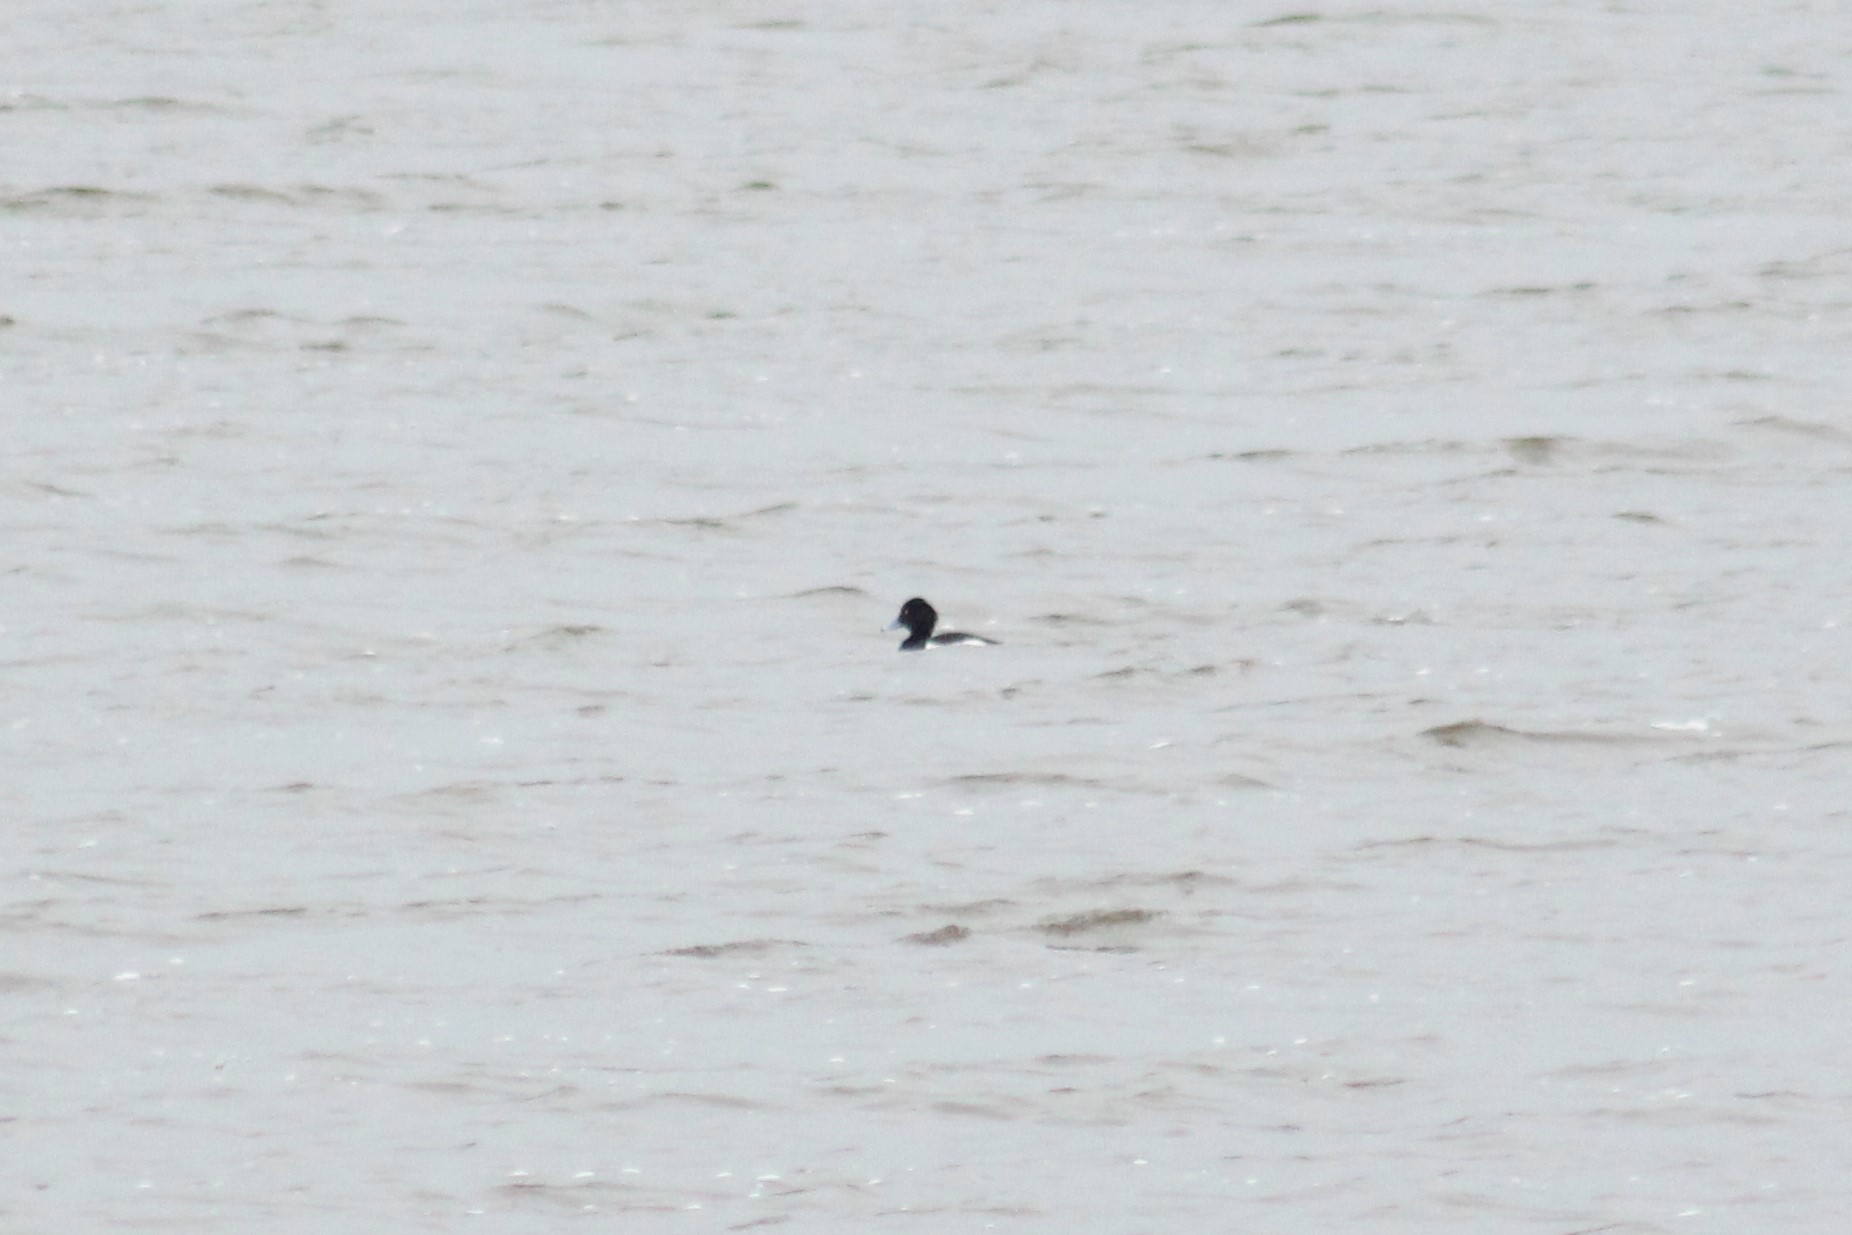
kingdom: Animalia
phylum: Chordata
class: Aves
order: Anseriformes
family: Anatidae
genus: Aythya
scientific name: Aythya fuligula
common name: Tufted duck
